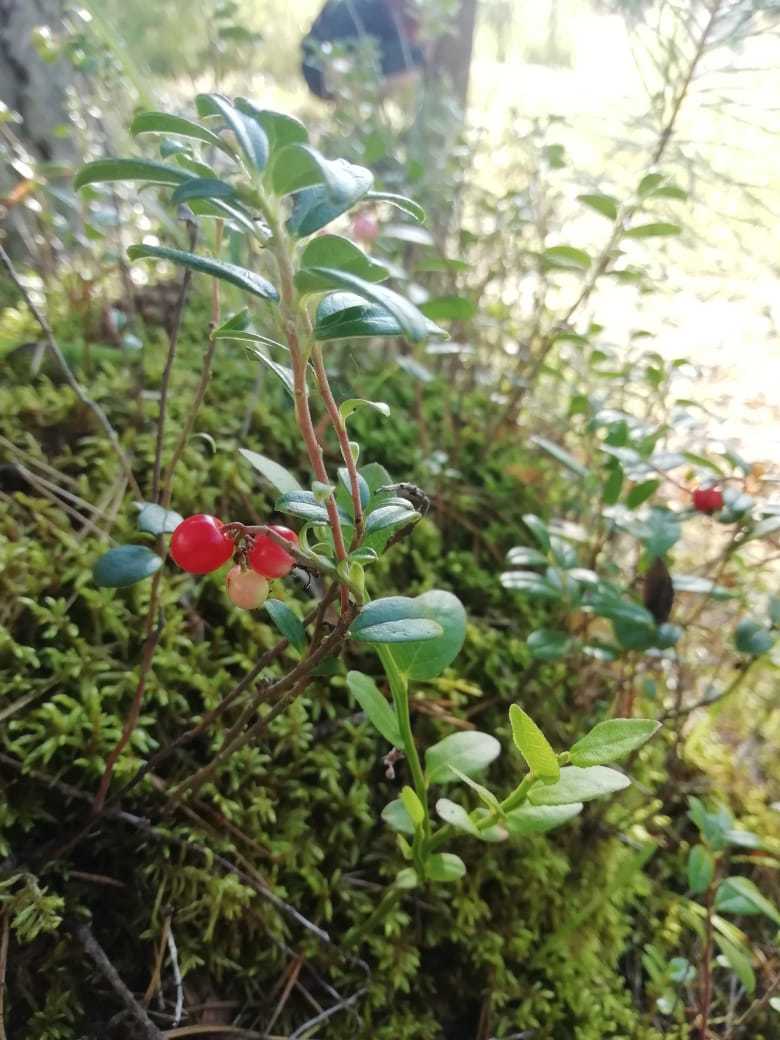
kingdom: Plantae
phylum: Tracheophyta
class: Magnoliopsida
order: Ericales
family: Ericaceae
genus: Vaccinium
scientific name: Vaccinium vitis-idaea
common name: Cowberry
